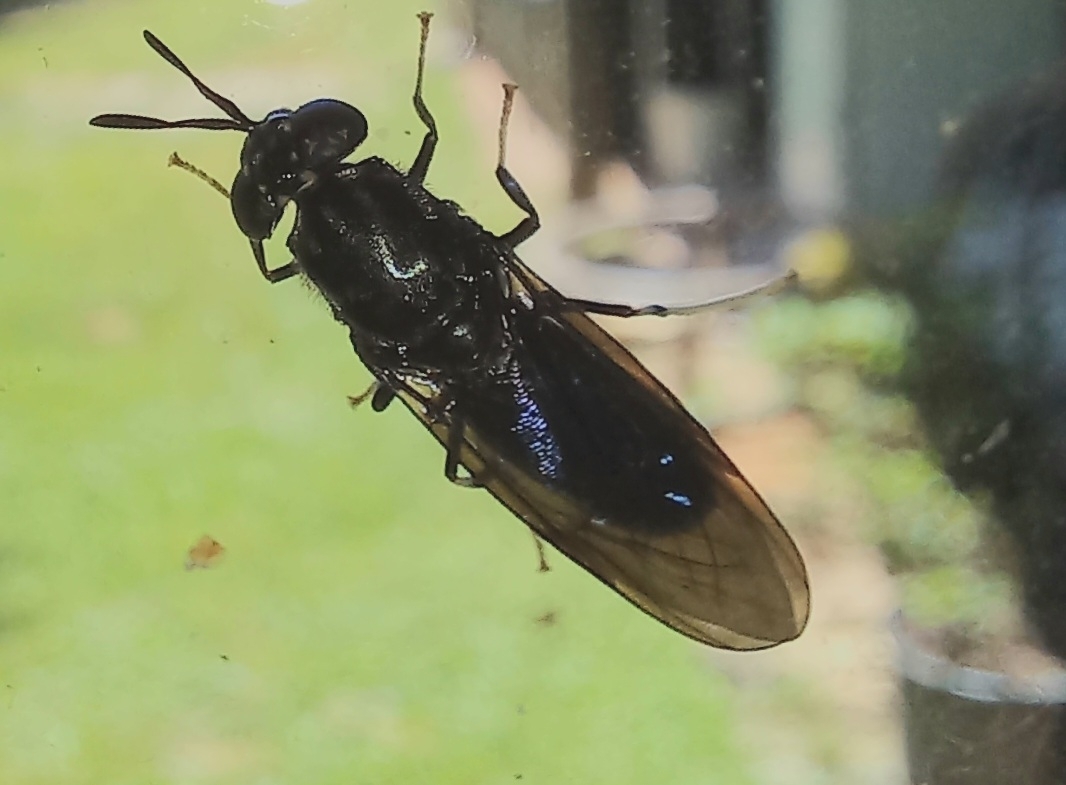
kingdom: Animalia
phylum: Arthropoda
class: Insecta
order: Diptera
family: Stratiomyidae
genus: Hermetia
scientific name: Hermetia illucens
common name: Black soldier fly
